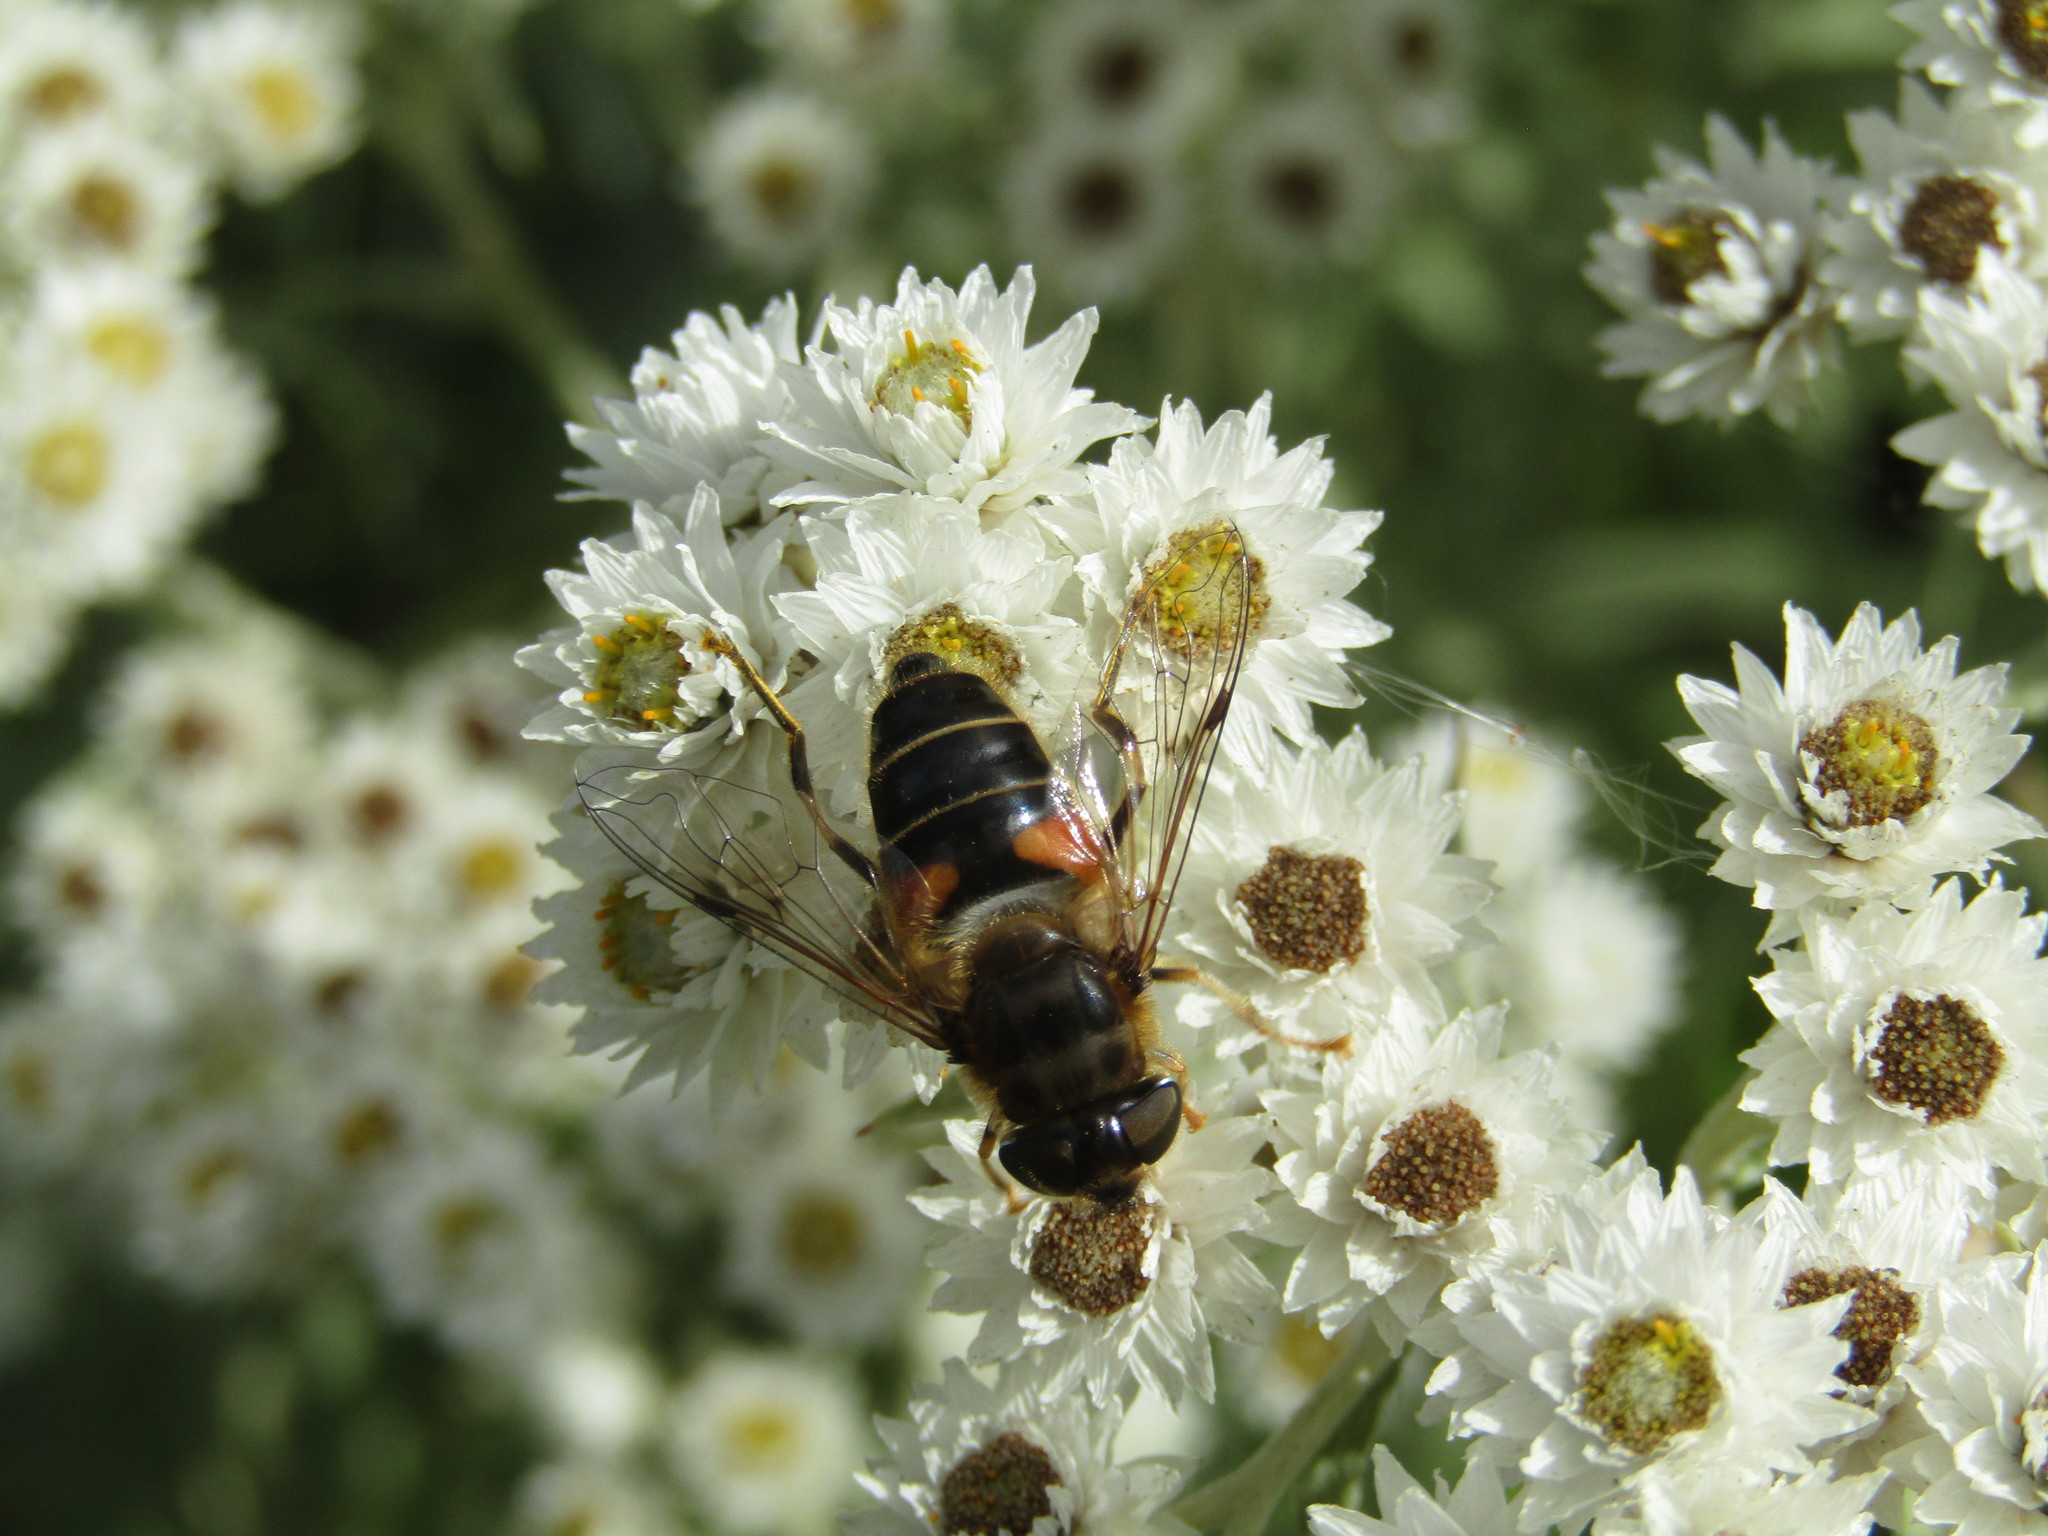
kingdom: Animalia
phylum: Arthropoda
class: Insecta
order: Diptera
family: Syrphidae
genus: Eristalis
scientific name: Eristalis pertinax
